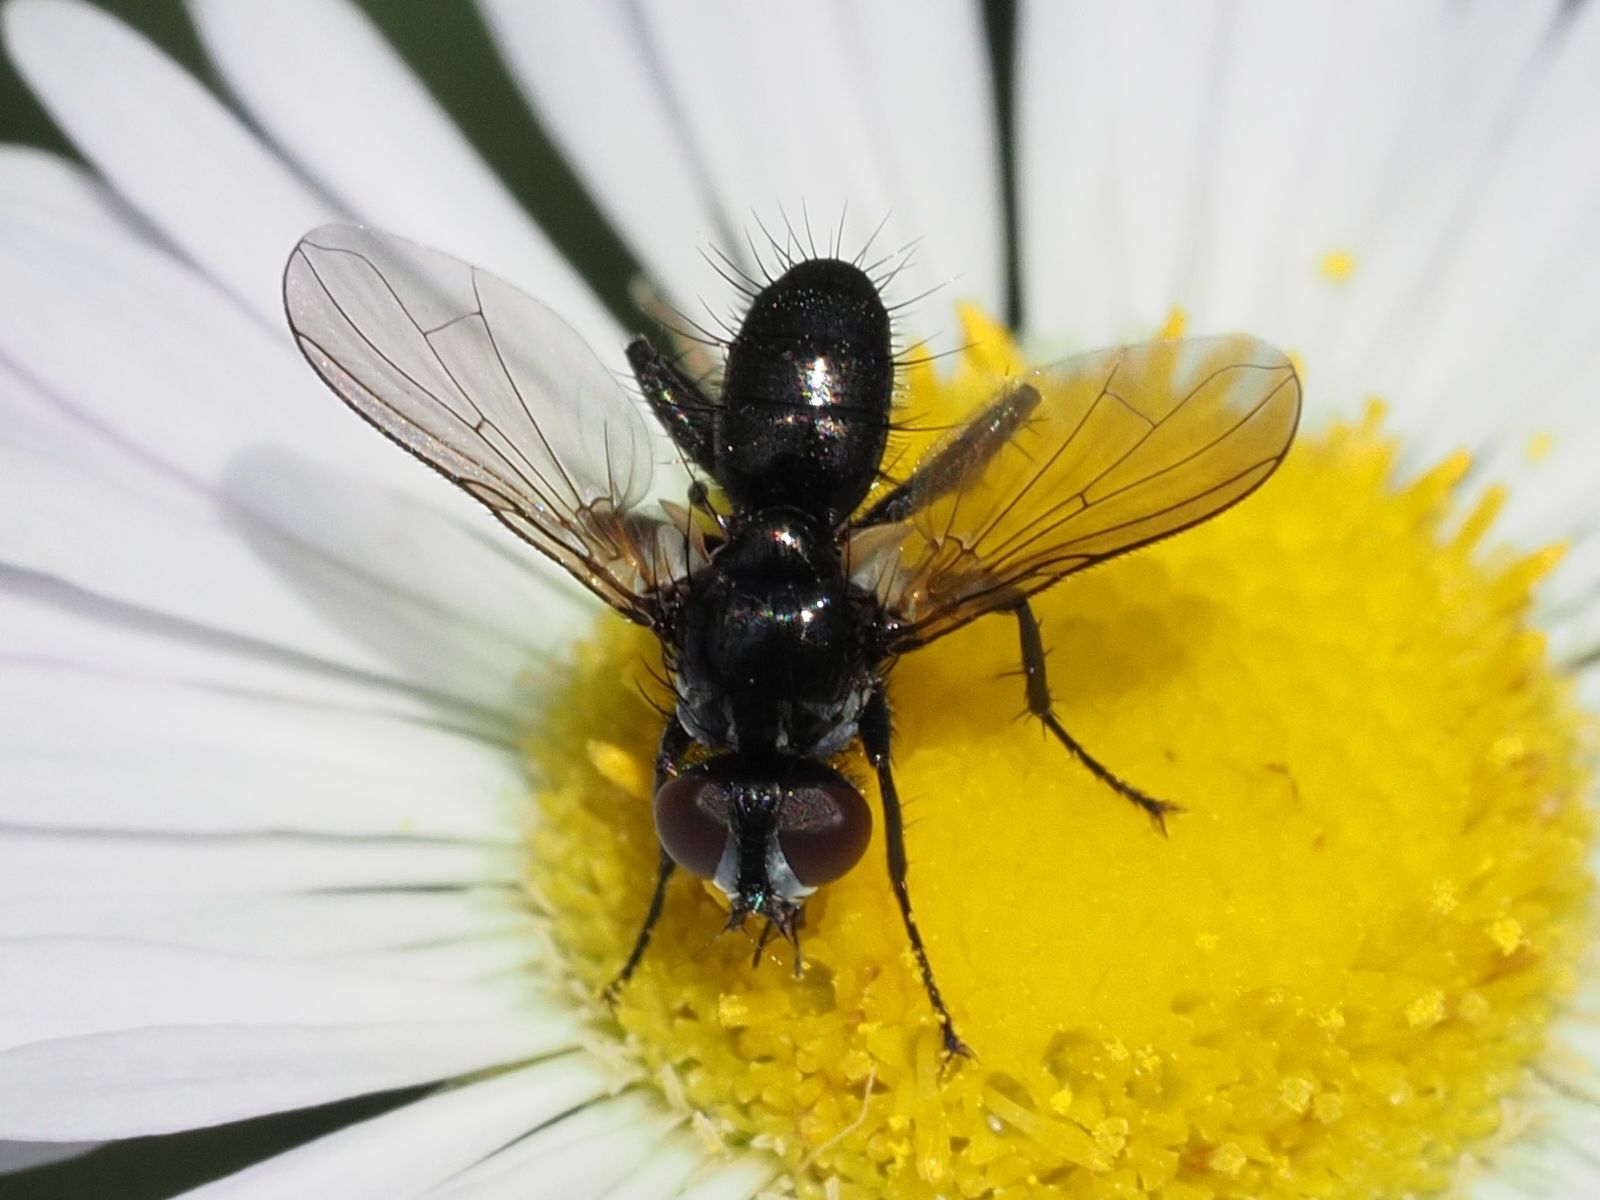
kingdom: Animalia
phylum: Arthropoda
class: Insecta
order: Diptera
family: Tachinidae
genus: Phania
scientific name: Phania funesta
